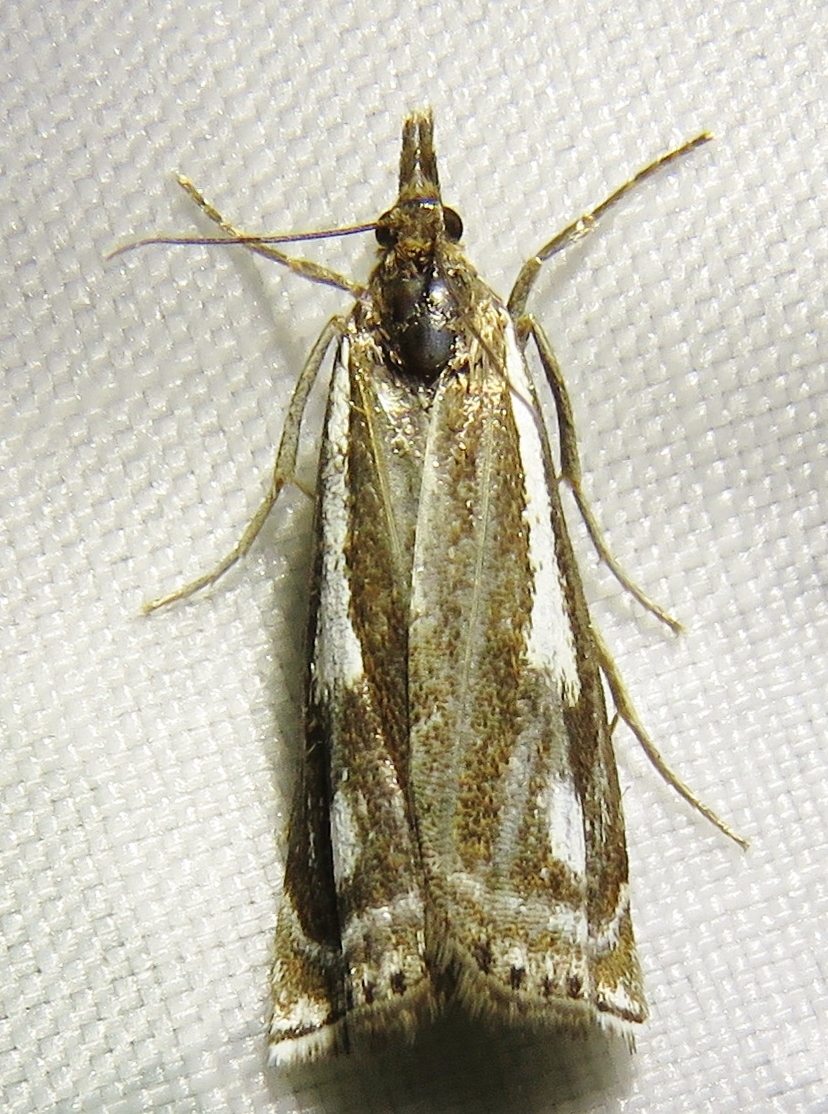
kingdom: Animalia
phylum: Arthropoda
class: Insecta
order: Lepidoptera
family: Crambidae
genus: Crambus
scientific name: Crambus heringiellus
